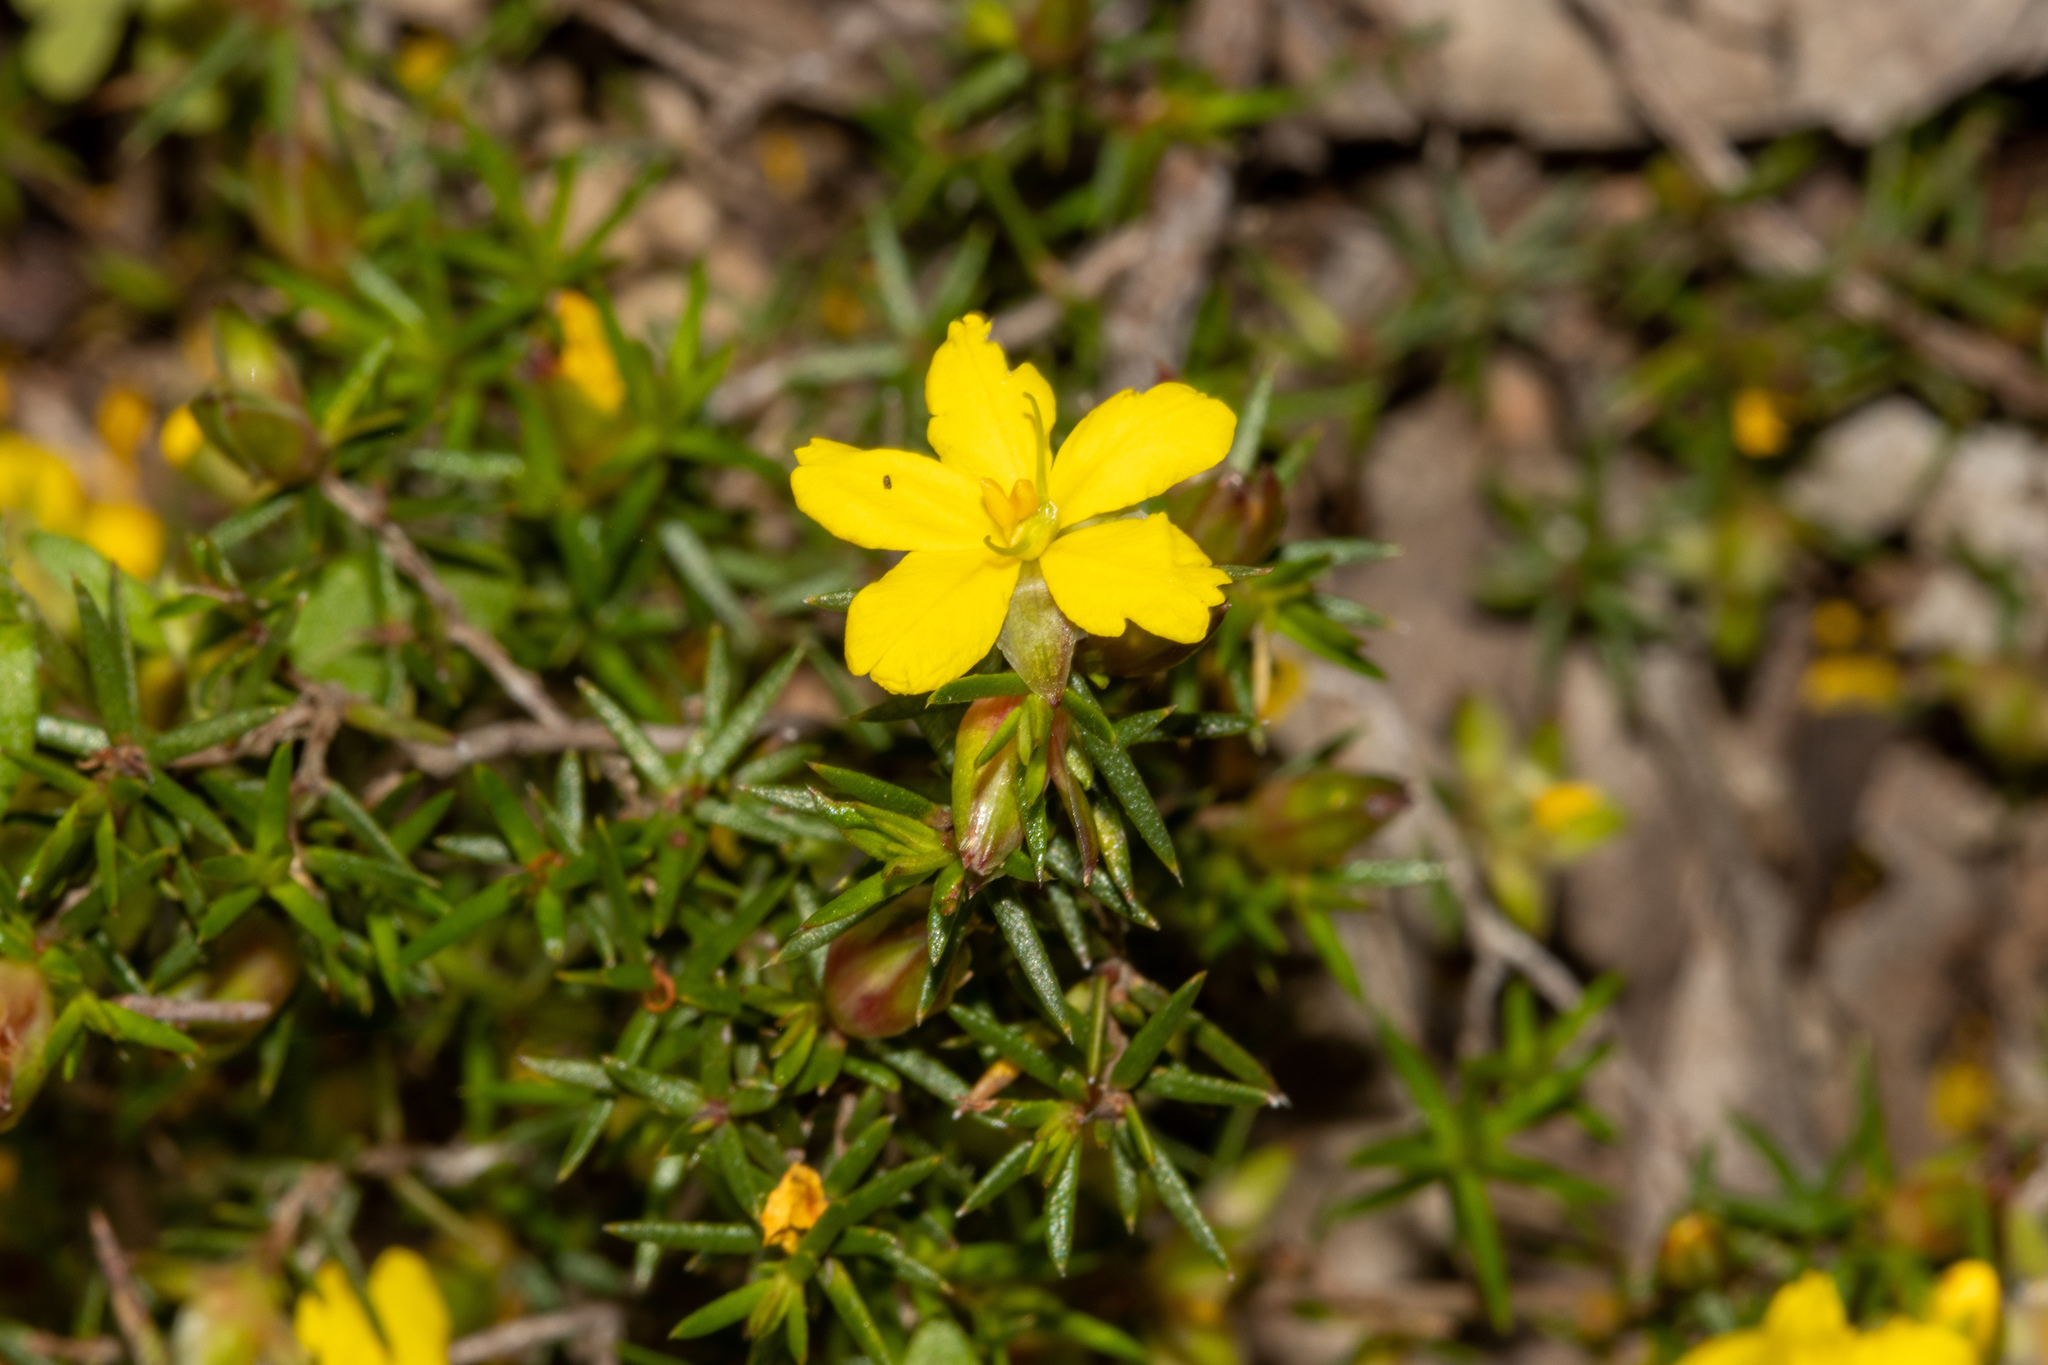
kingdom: Plantae
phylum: Tracheophyta
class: Magnoliopsida
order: Dilleniales
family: Dilleniaceae
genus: Hibbertia
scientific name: Hibbertia exutiacies
